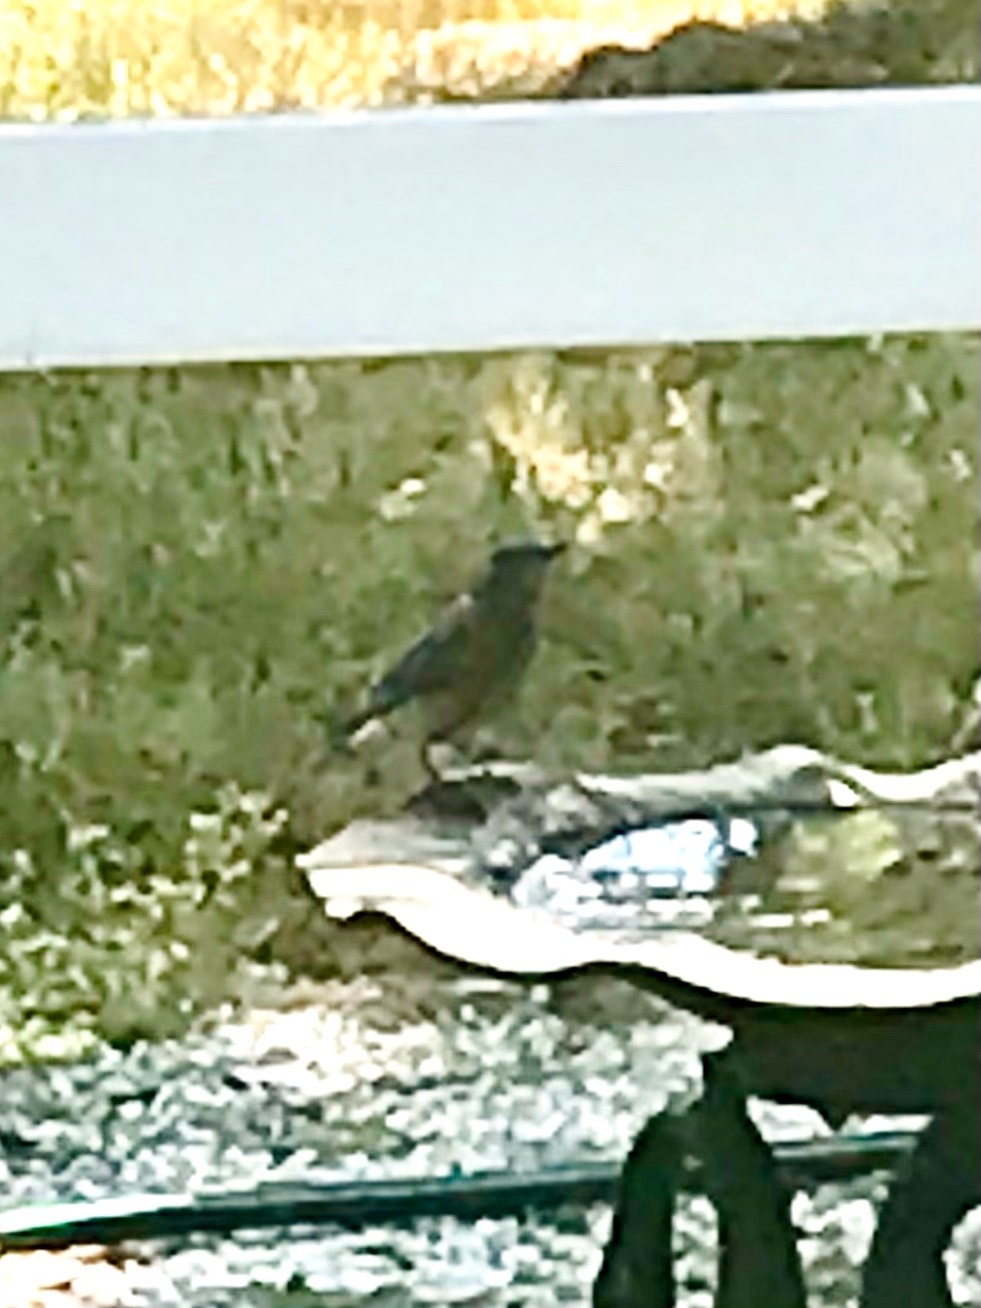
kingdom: Animalia
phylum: Chordata
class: Aves
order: Passeriformes
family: Turdidae
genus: Sialia
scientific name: Sialia mexicana
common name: Western bluebird
